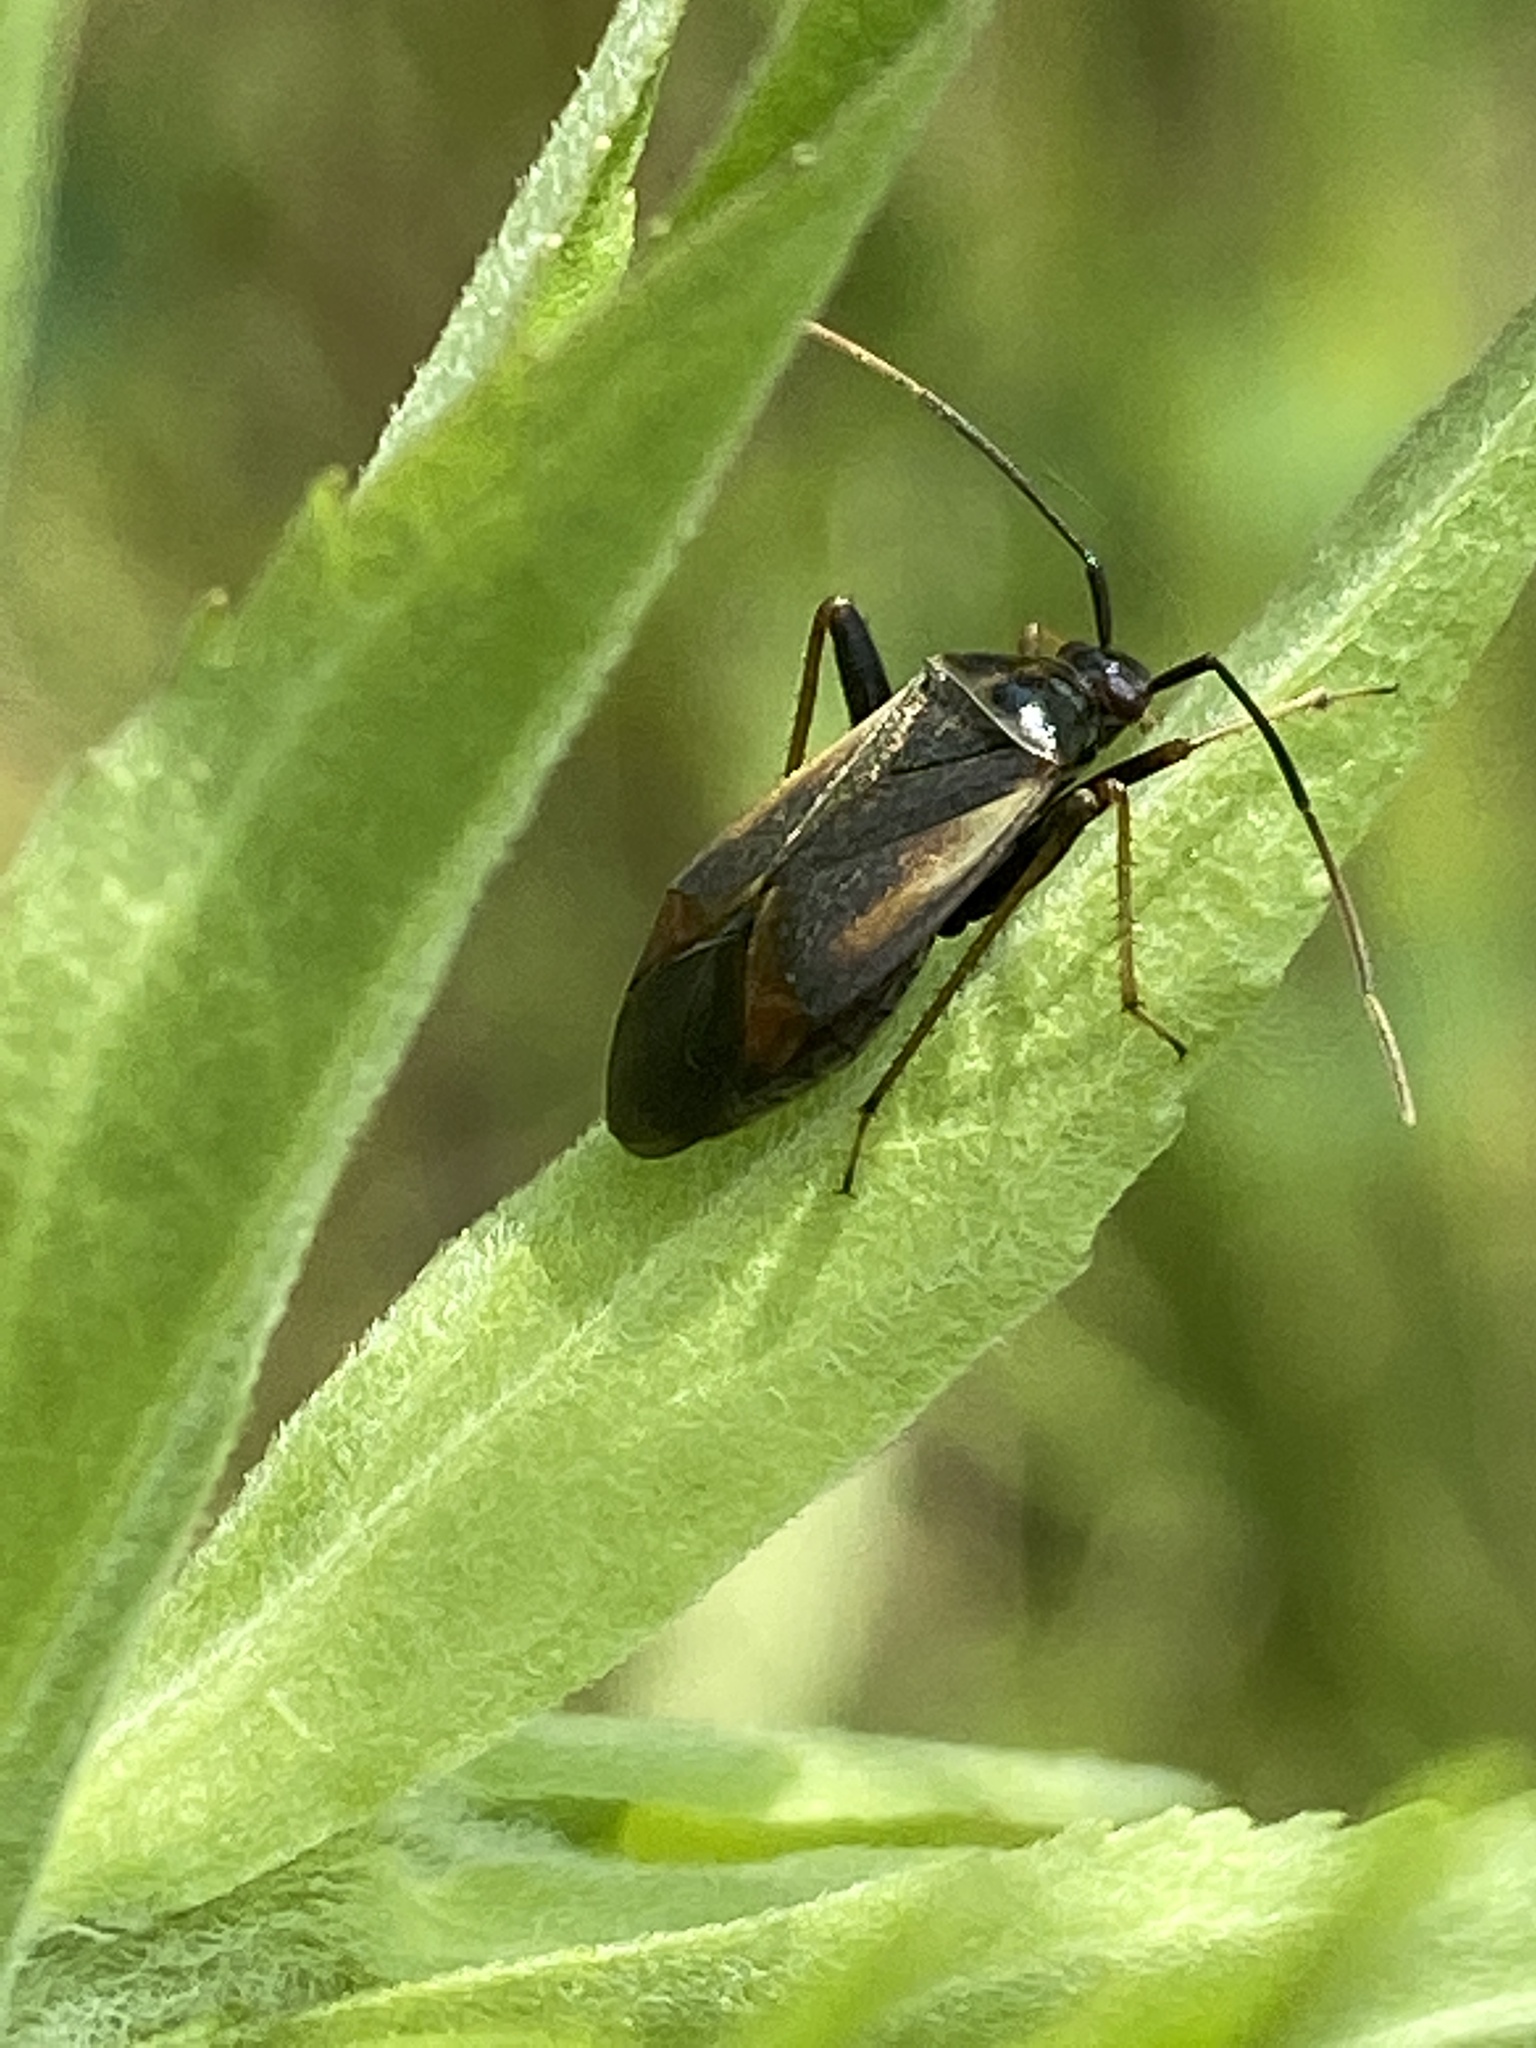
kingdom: Animalia
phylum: Arthropoda
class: Insecta
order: Hemiptera
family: Miridae
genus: Adelphocoris
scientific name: Adelphocoris seticornis
